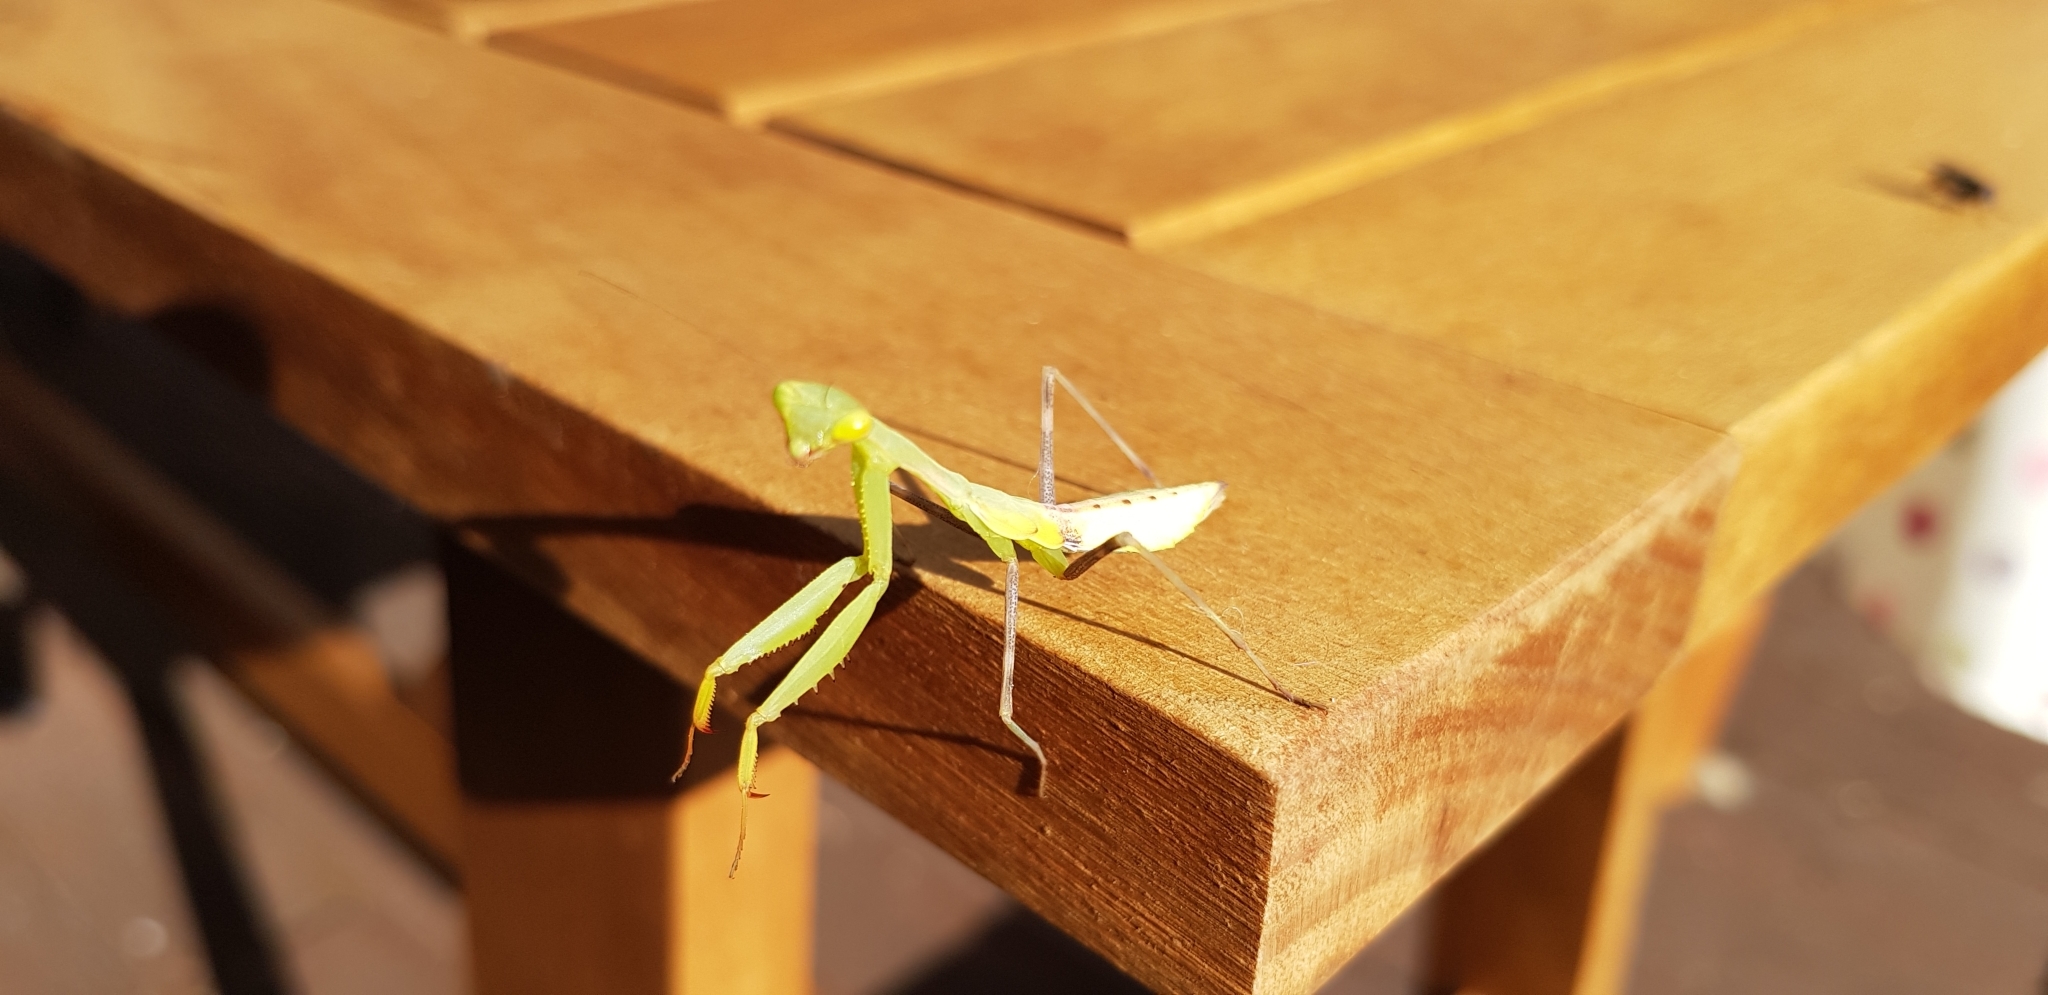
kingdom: Animalia
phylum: Arthropoda
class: Insecta
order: Mantodea
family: Miomantidae
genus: Miomantis
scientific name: Miomantis caffra
